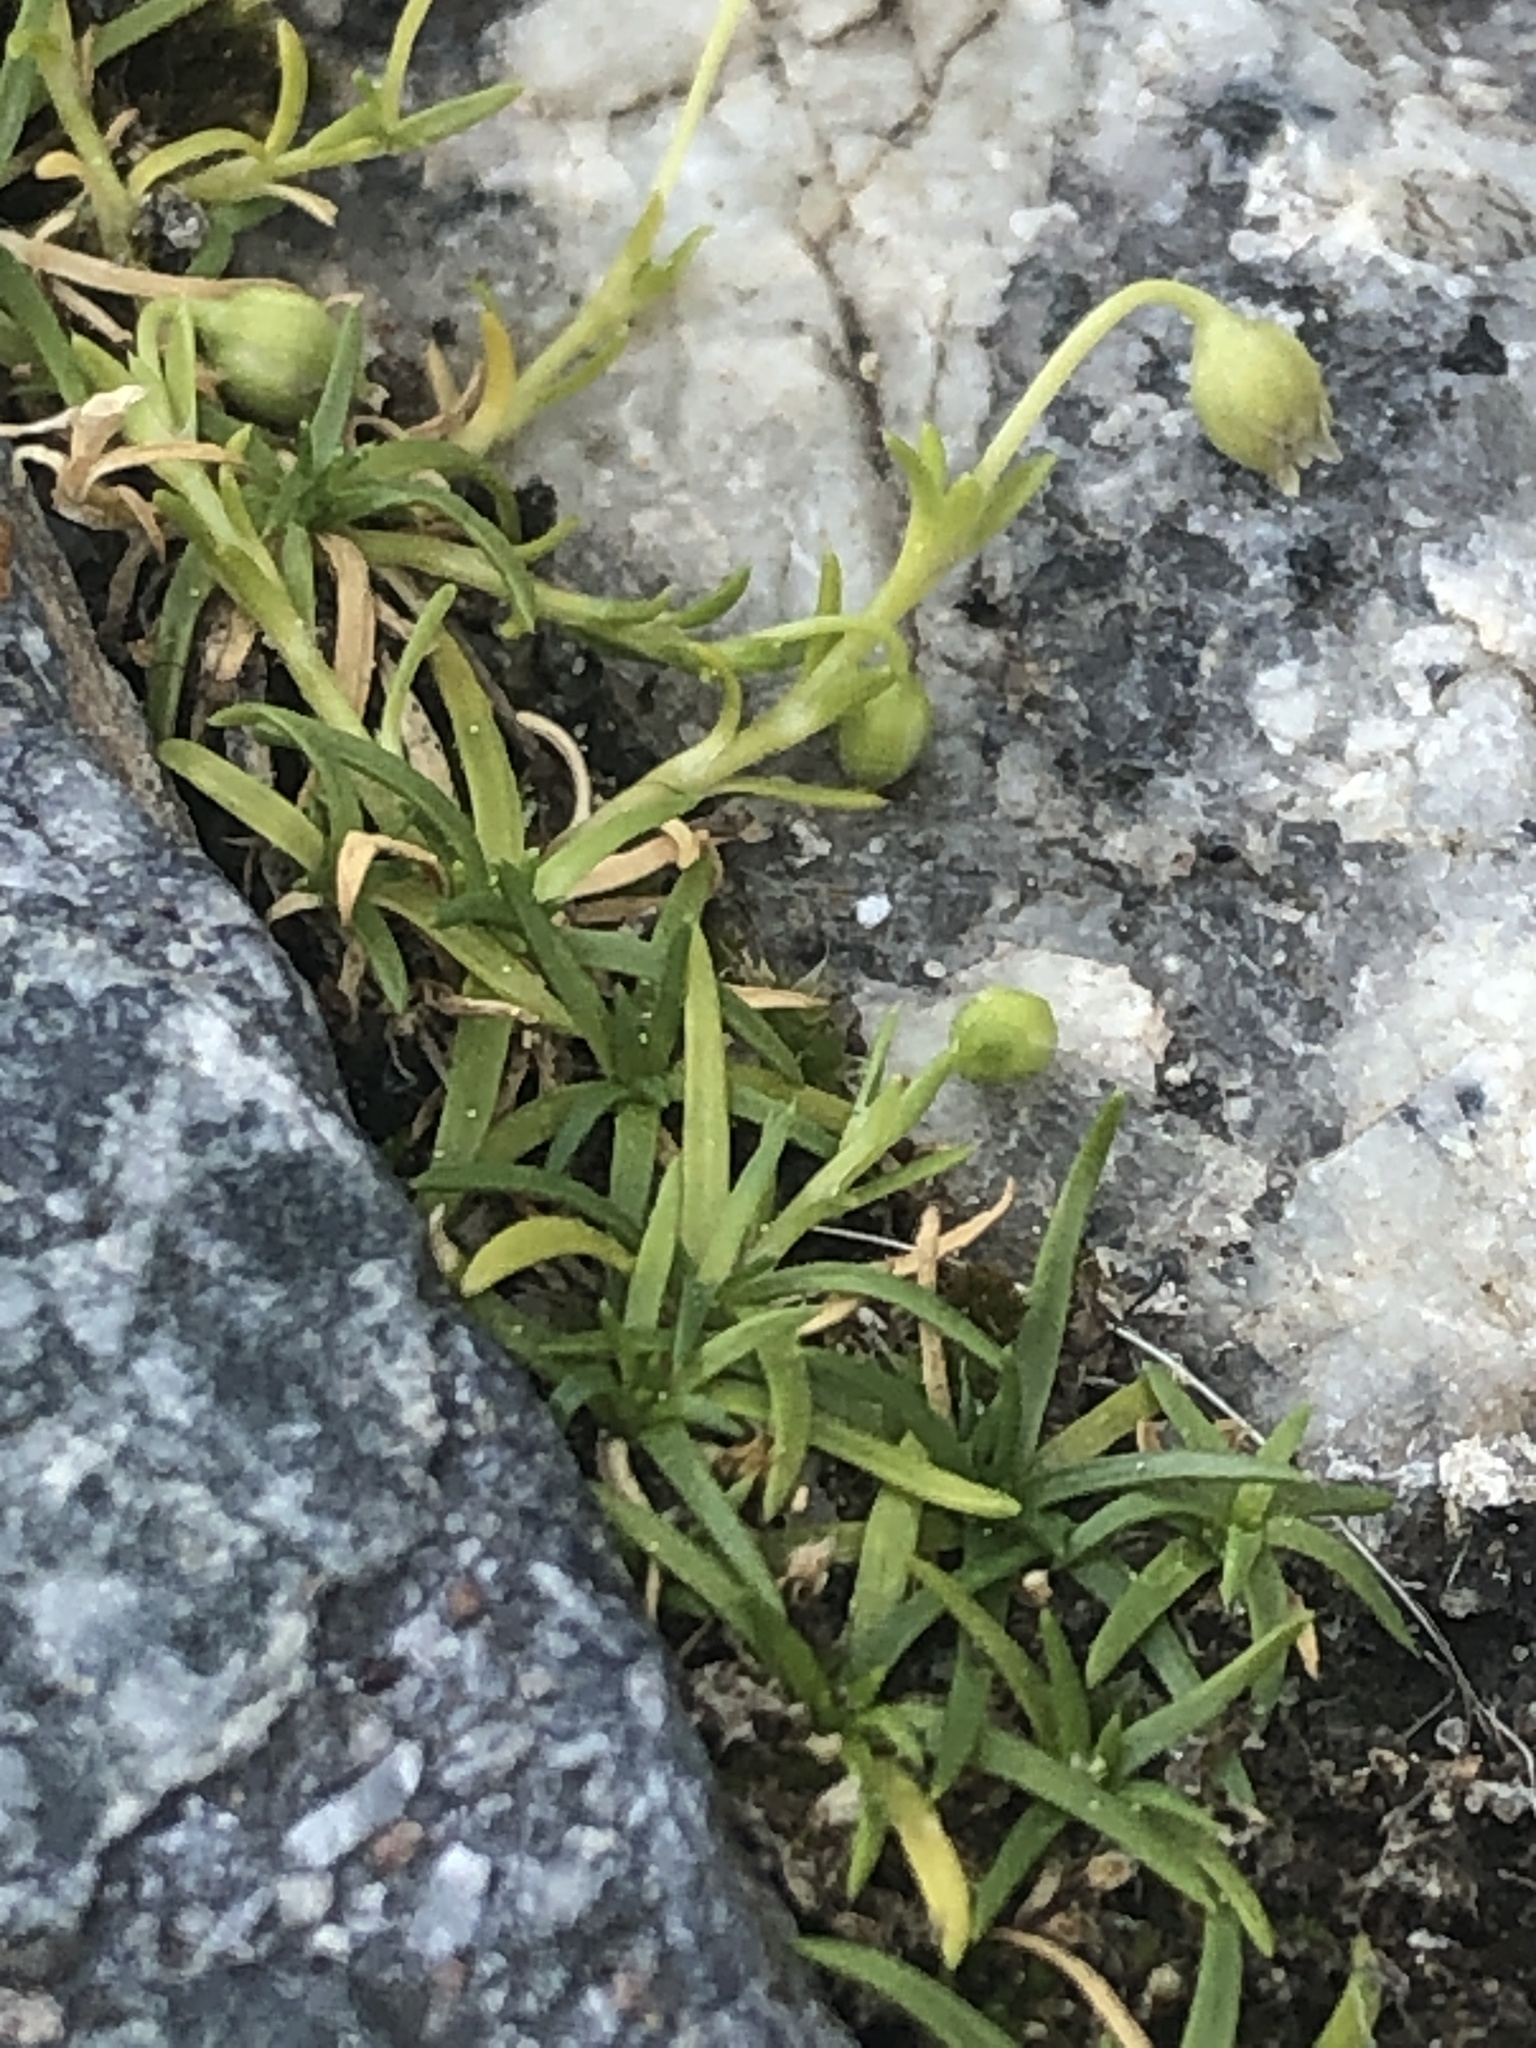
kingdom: Plantae
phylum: Tracheophyta
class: Magnoliopsida
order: Caryophyllales
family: Caryophyllaceae
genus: Sagina
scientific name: Sagina procumbens
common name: Procumbent pearlwort
